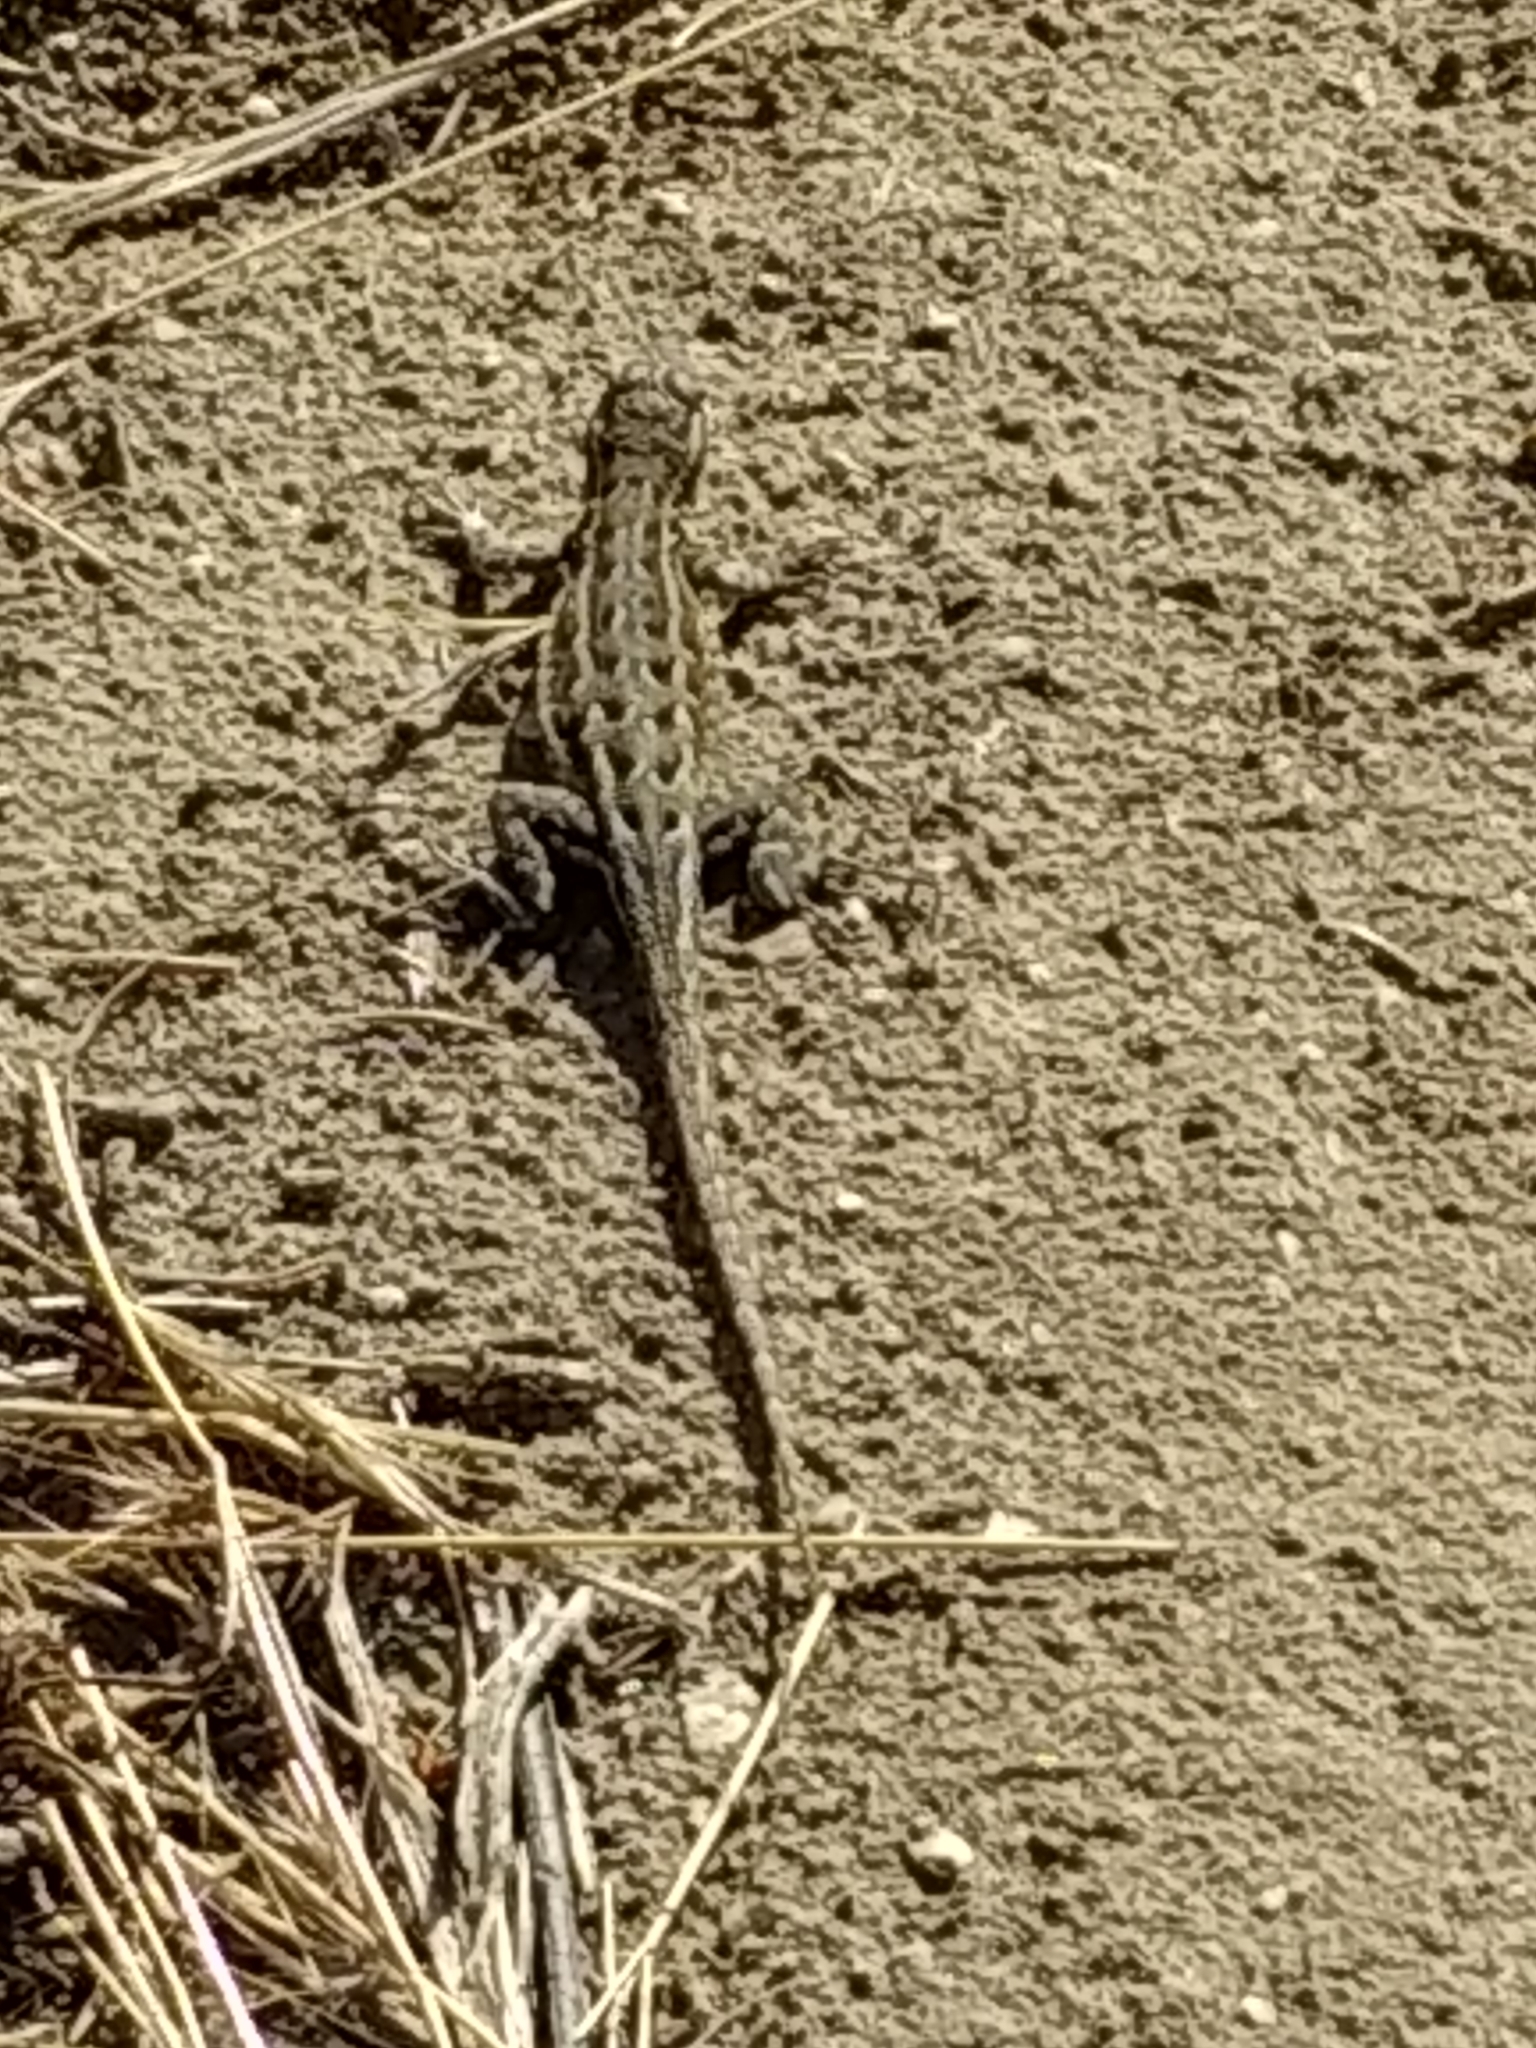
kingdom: Animalia
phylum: Chordata
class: Squamata
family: Phrynosomatidae
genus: Uta
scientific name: Uta stansburiana
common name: Side-blotched lizard
